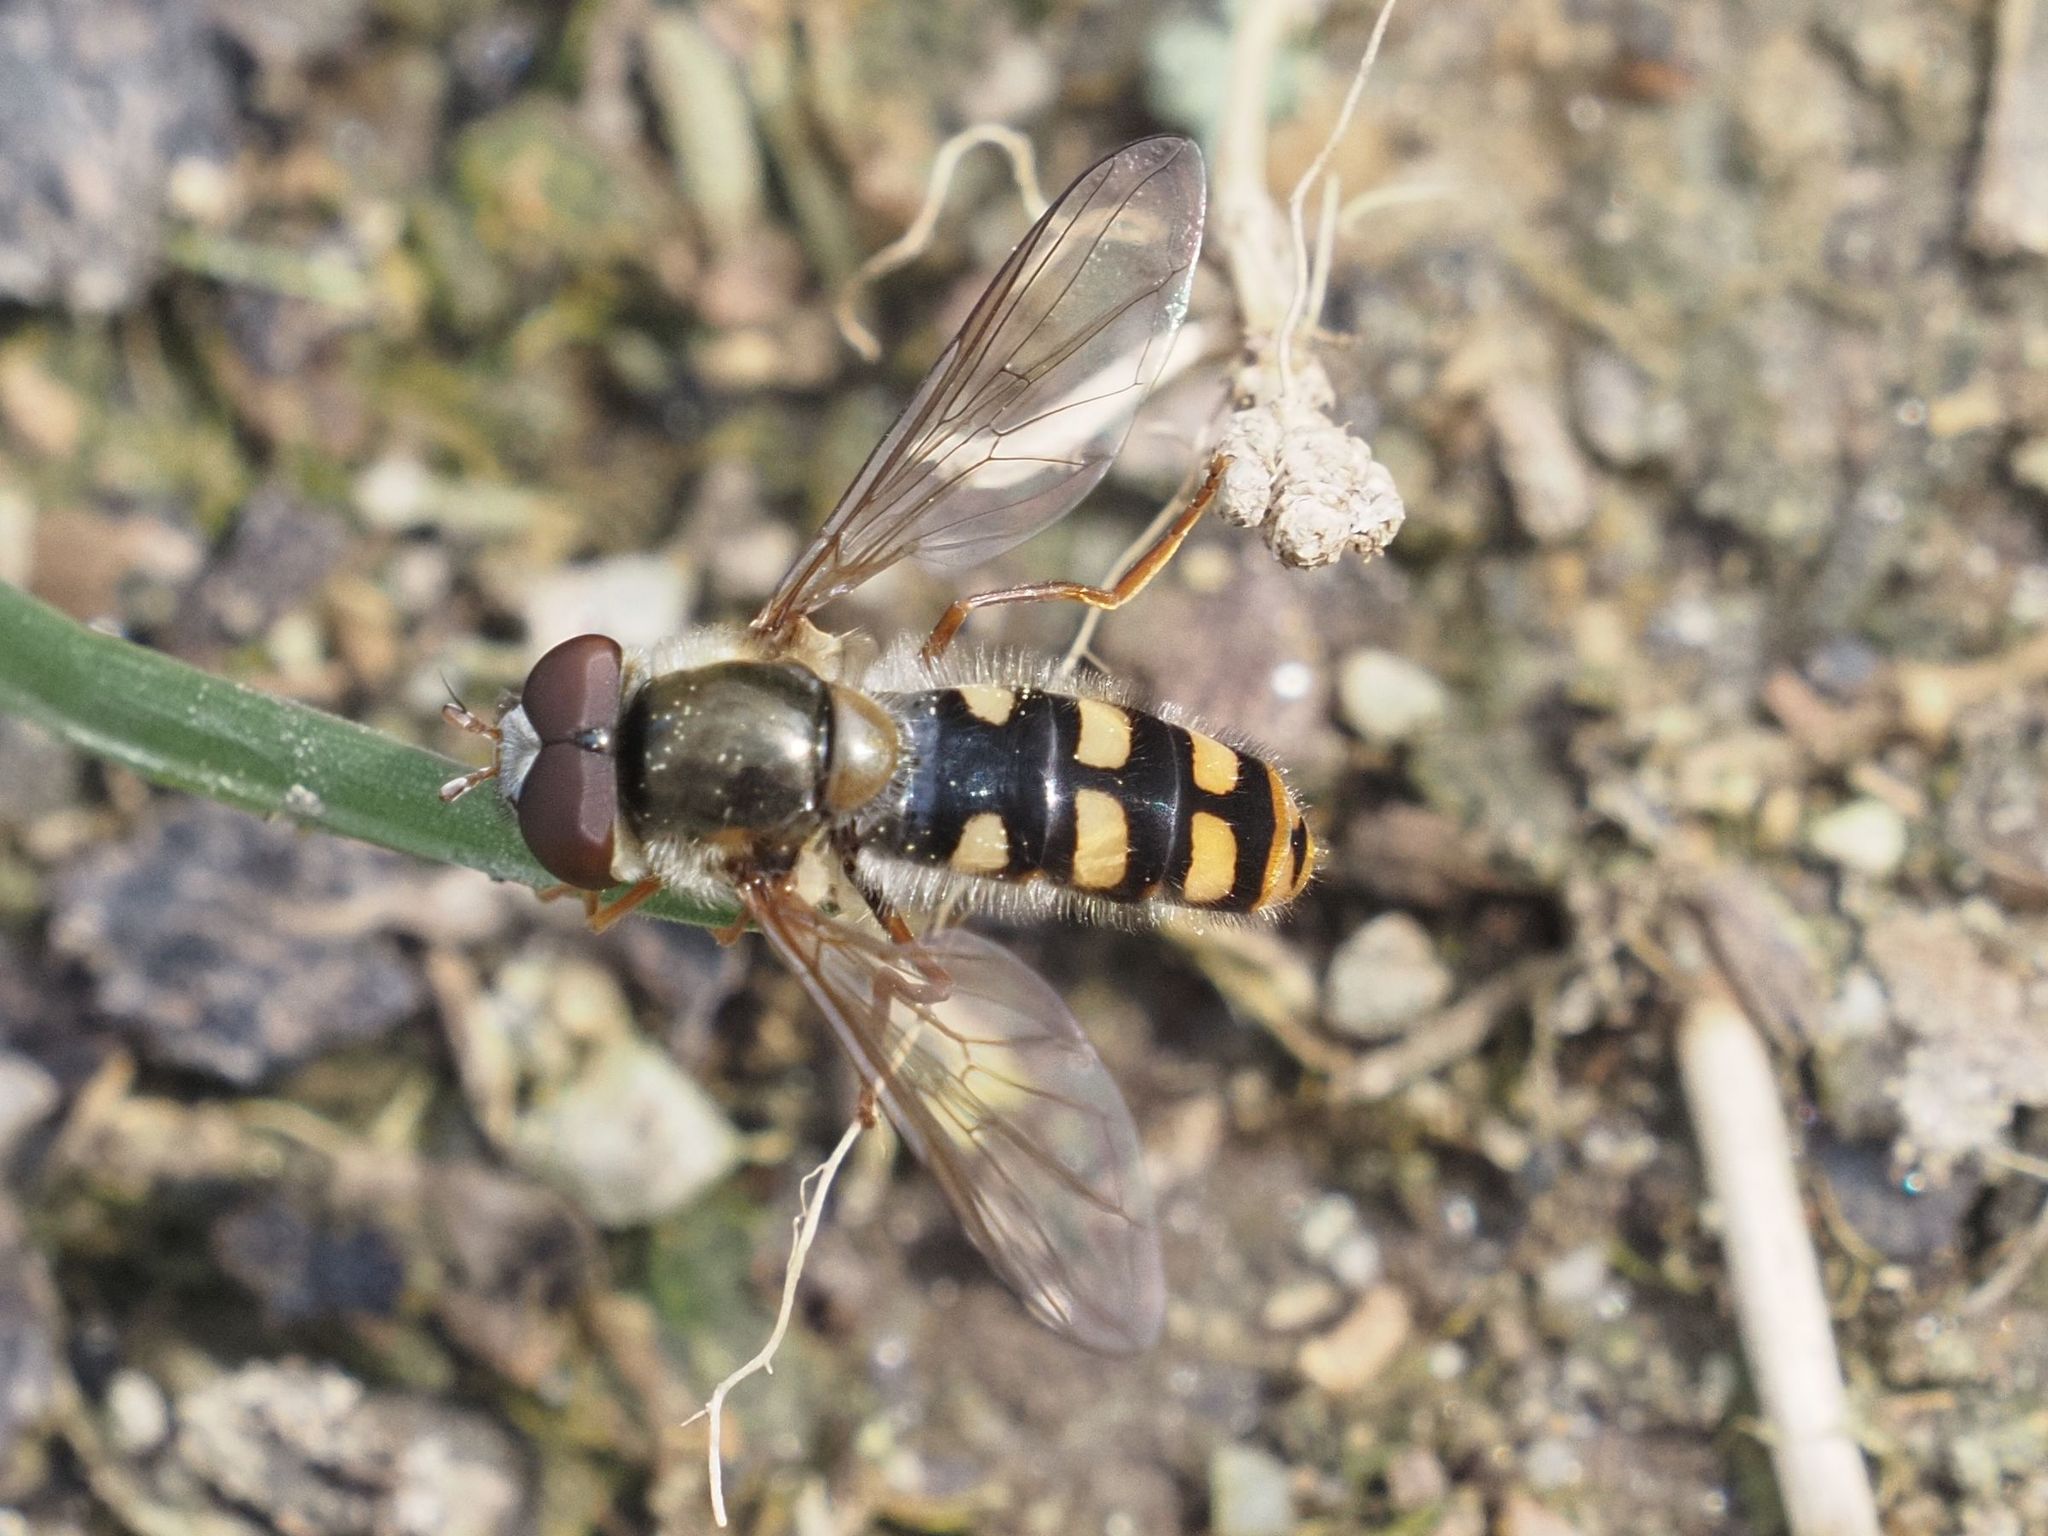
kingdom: Animalia
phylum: Arthropoda
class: Insecta
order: Diptera
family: Syrphidae
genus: Epistrophella
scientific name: Epistrophella euchromus
